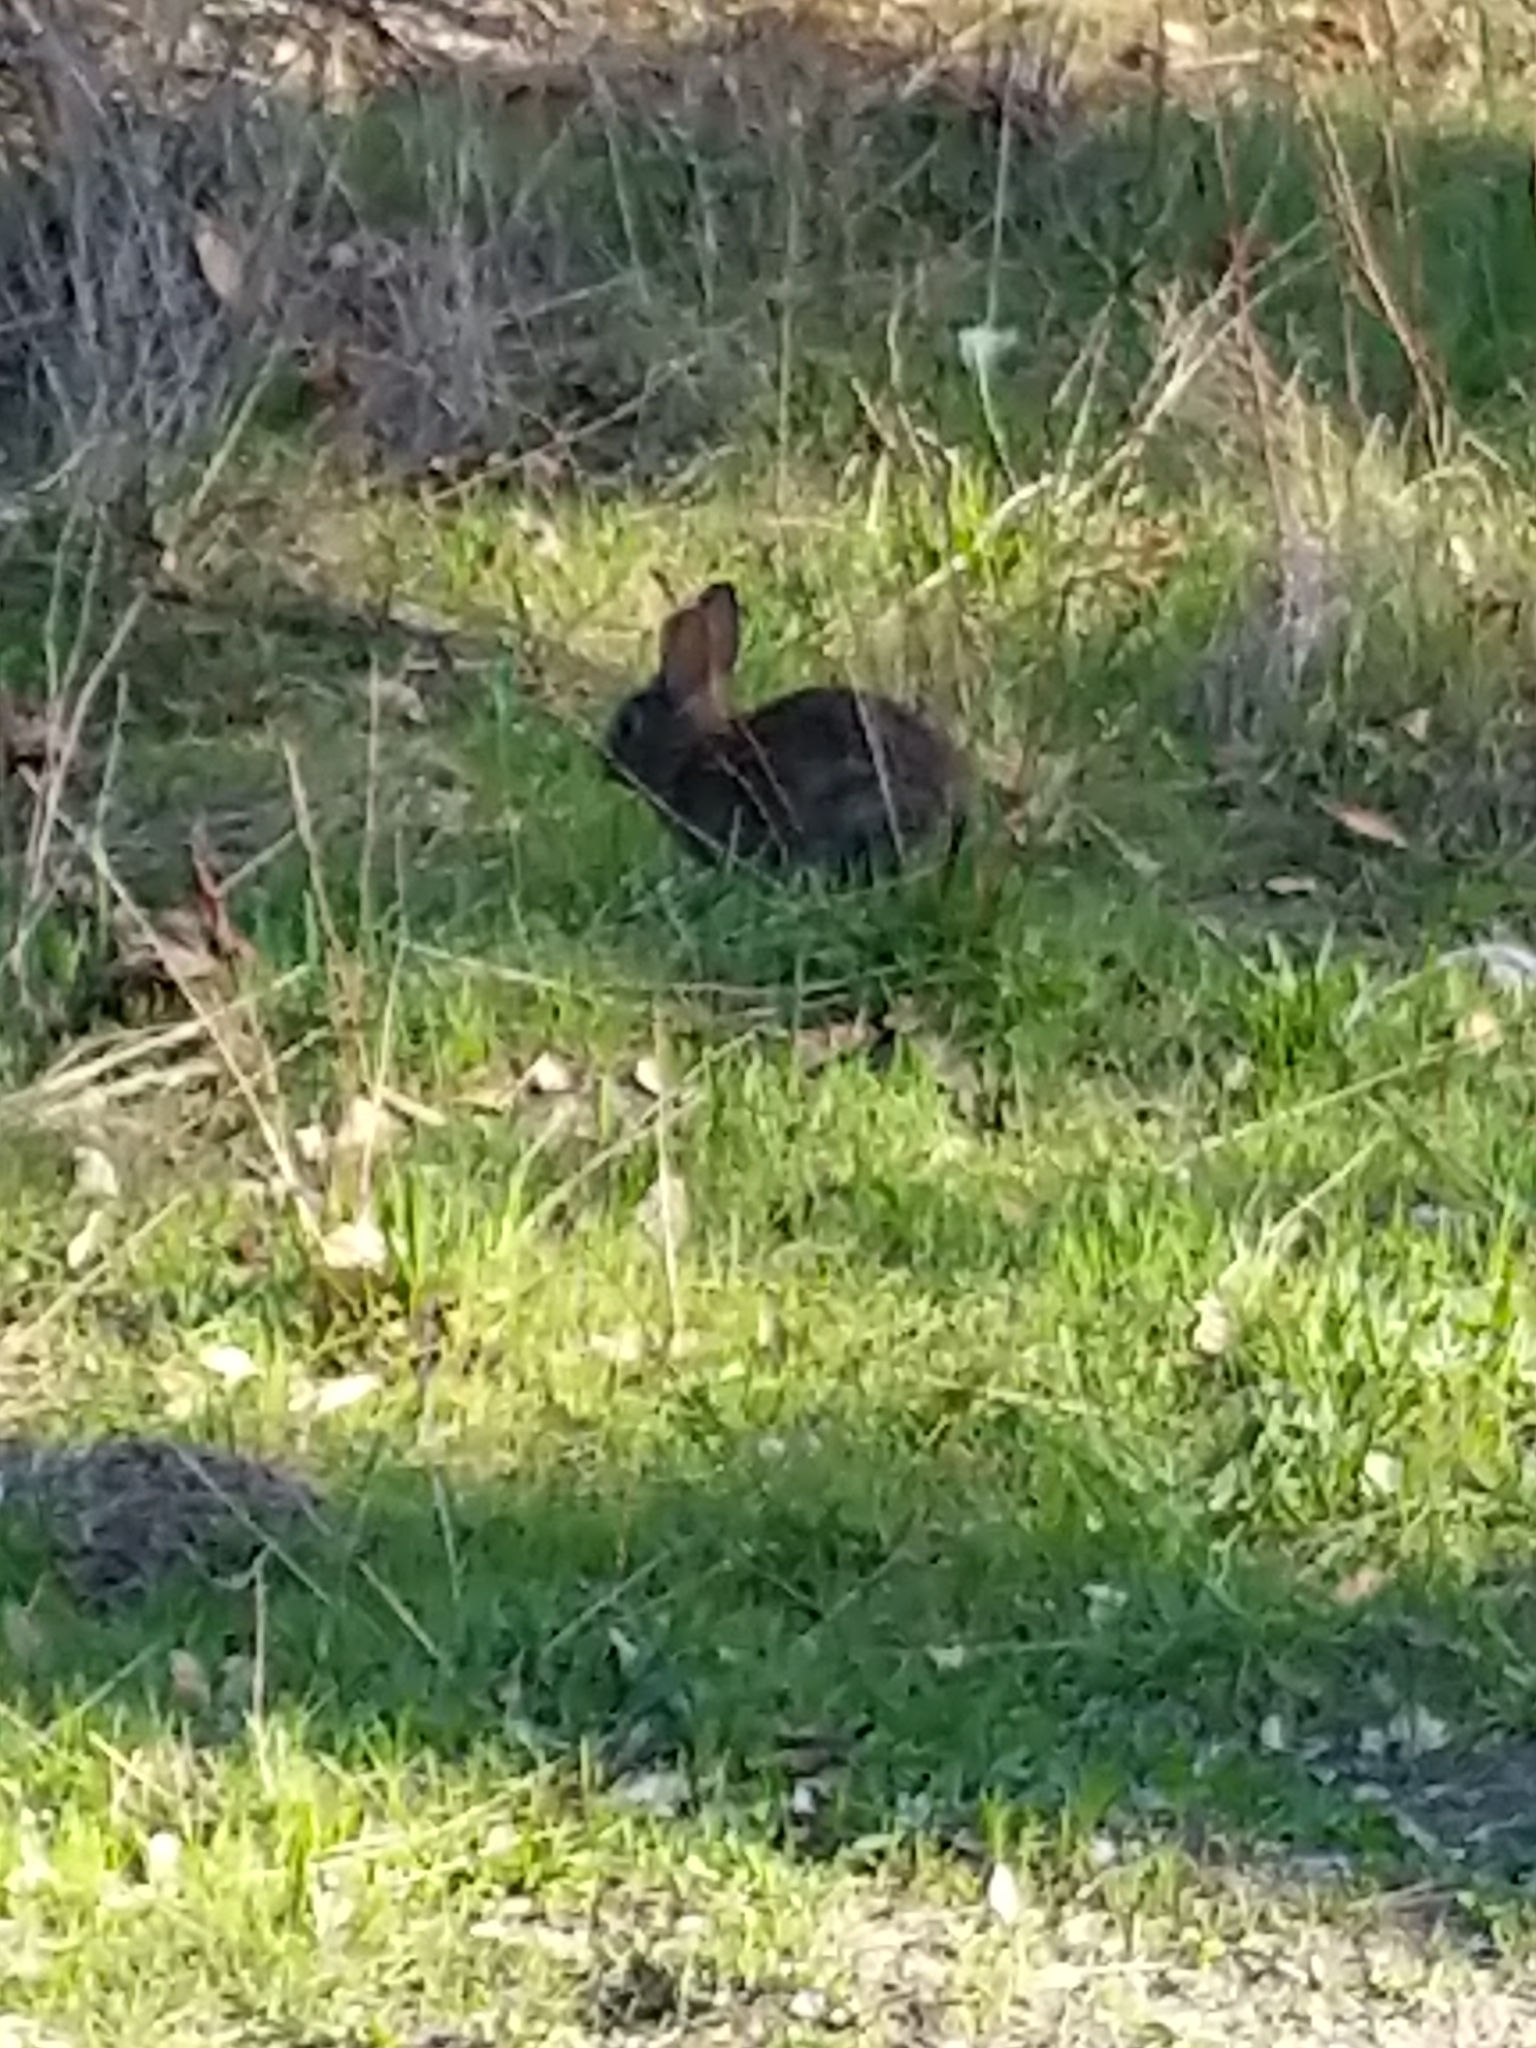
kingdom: Animalia
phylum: Chordata
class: Mammalia
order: Lagomorpha
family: Leporidae
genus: Sylvilagus
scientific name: Sylvilagus bachmani
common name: Brush rabbit
